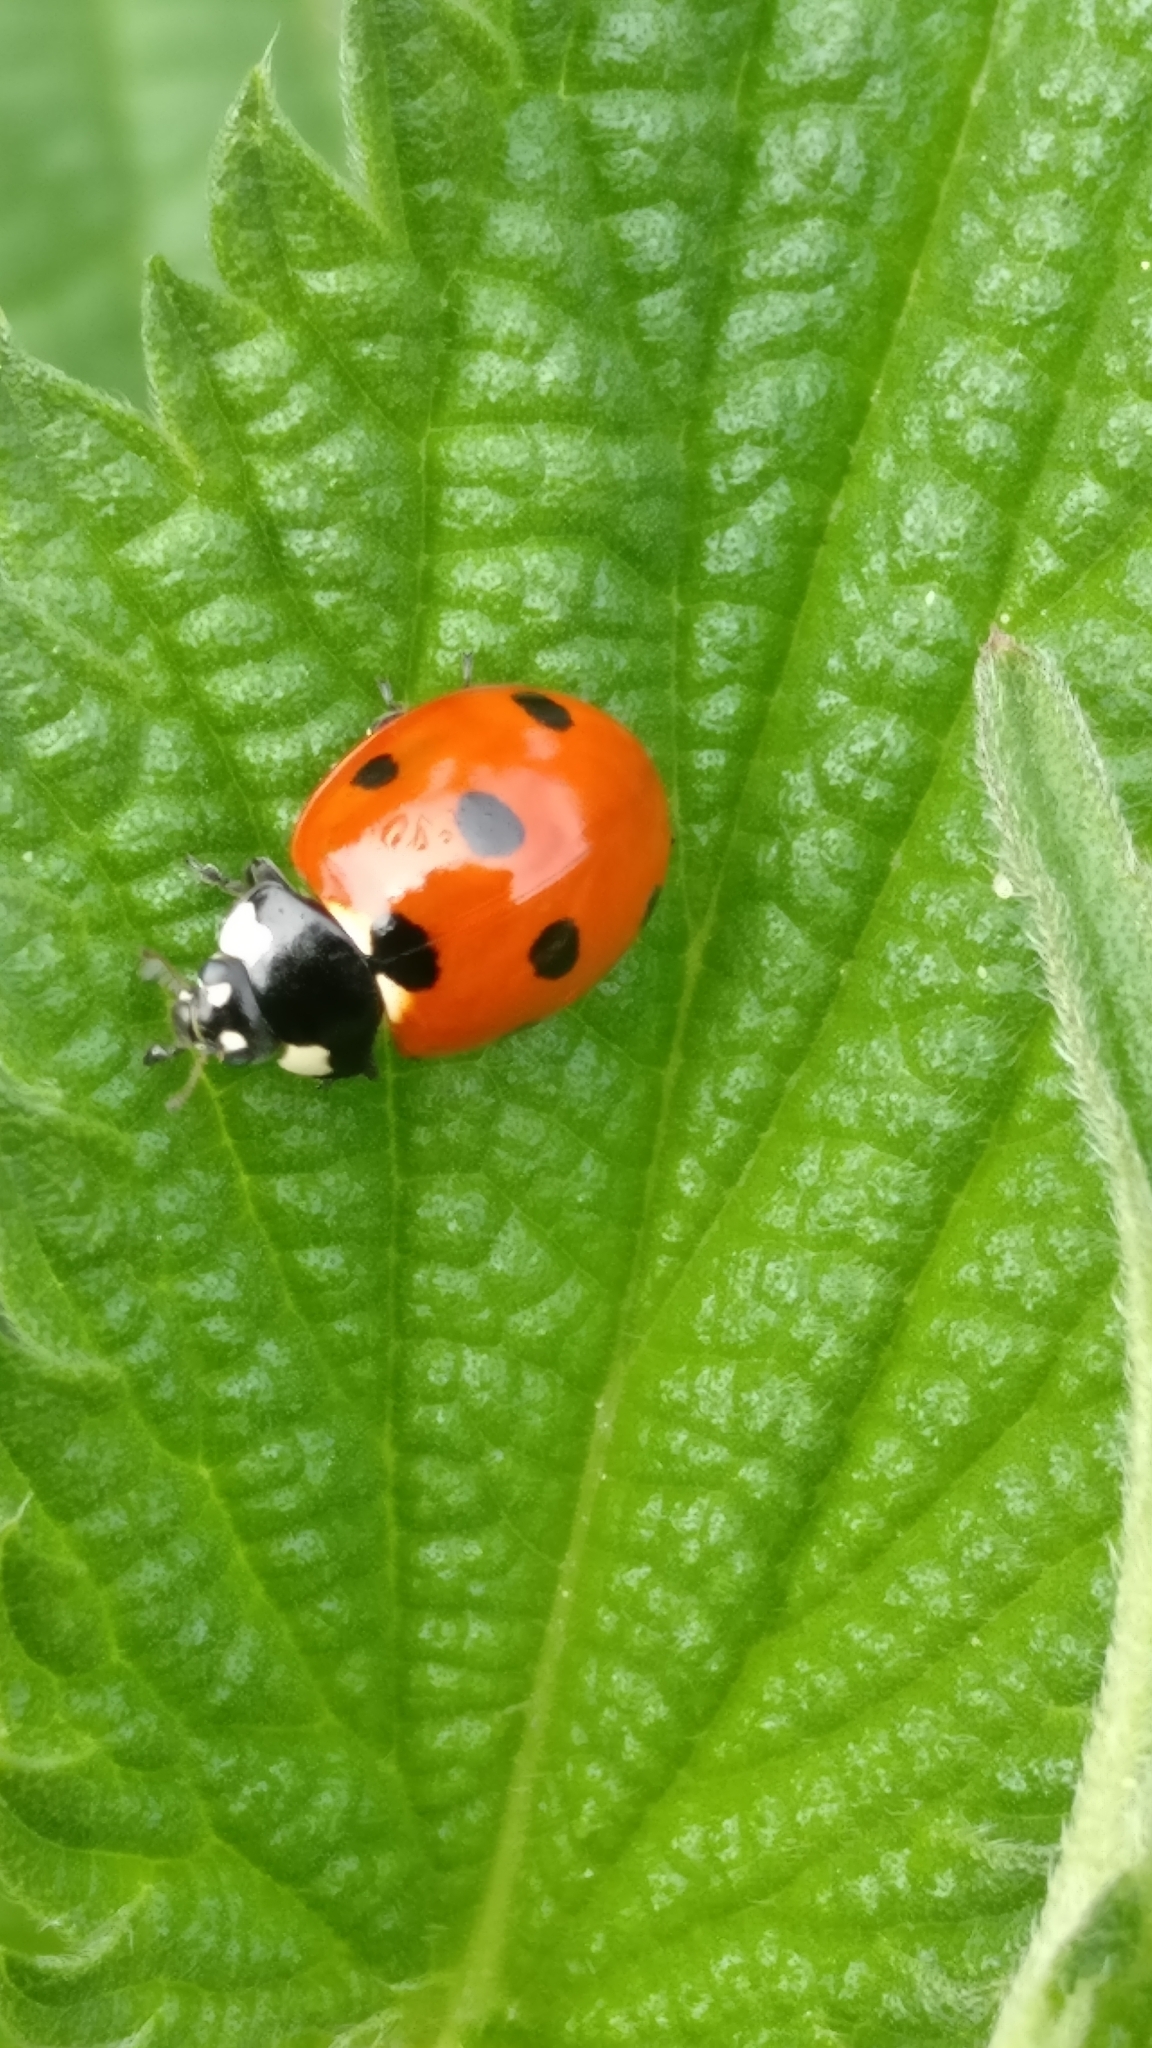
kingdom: Animalia
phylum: Arthropoda
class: Insecta
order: Coleoptera
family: Coccinellidae
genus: Coccinella
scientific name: Coccinella septempunctata
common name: Sevenspotted lady beetle
